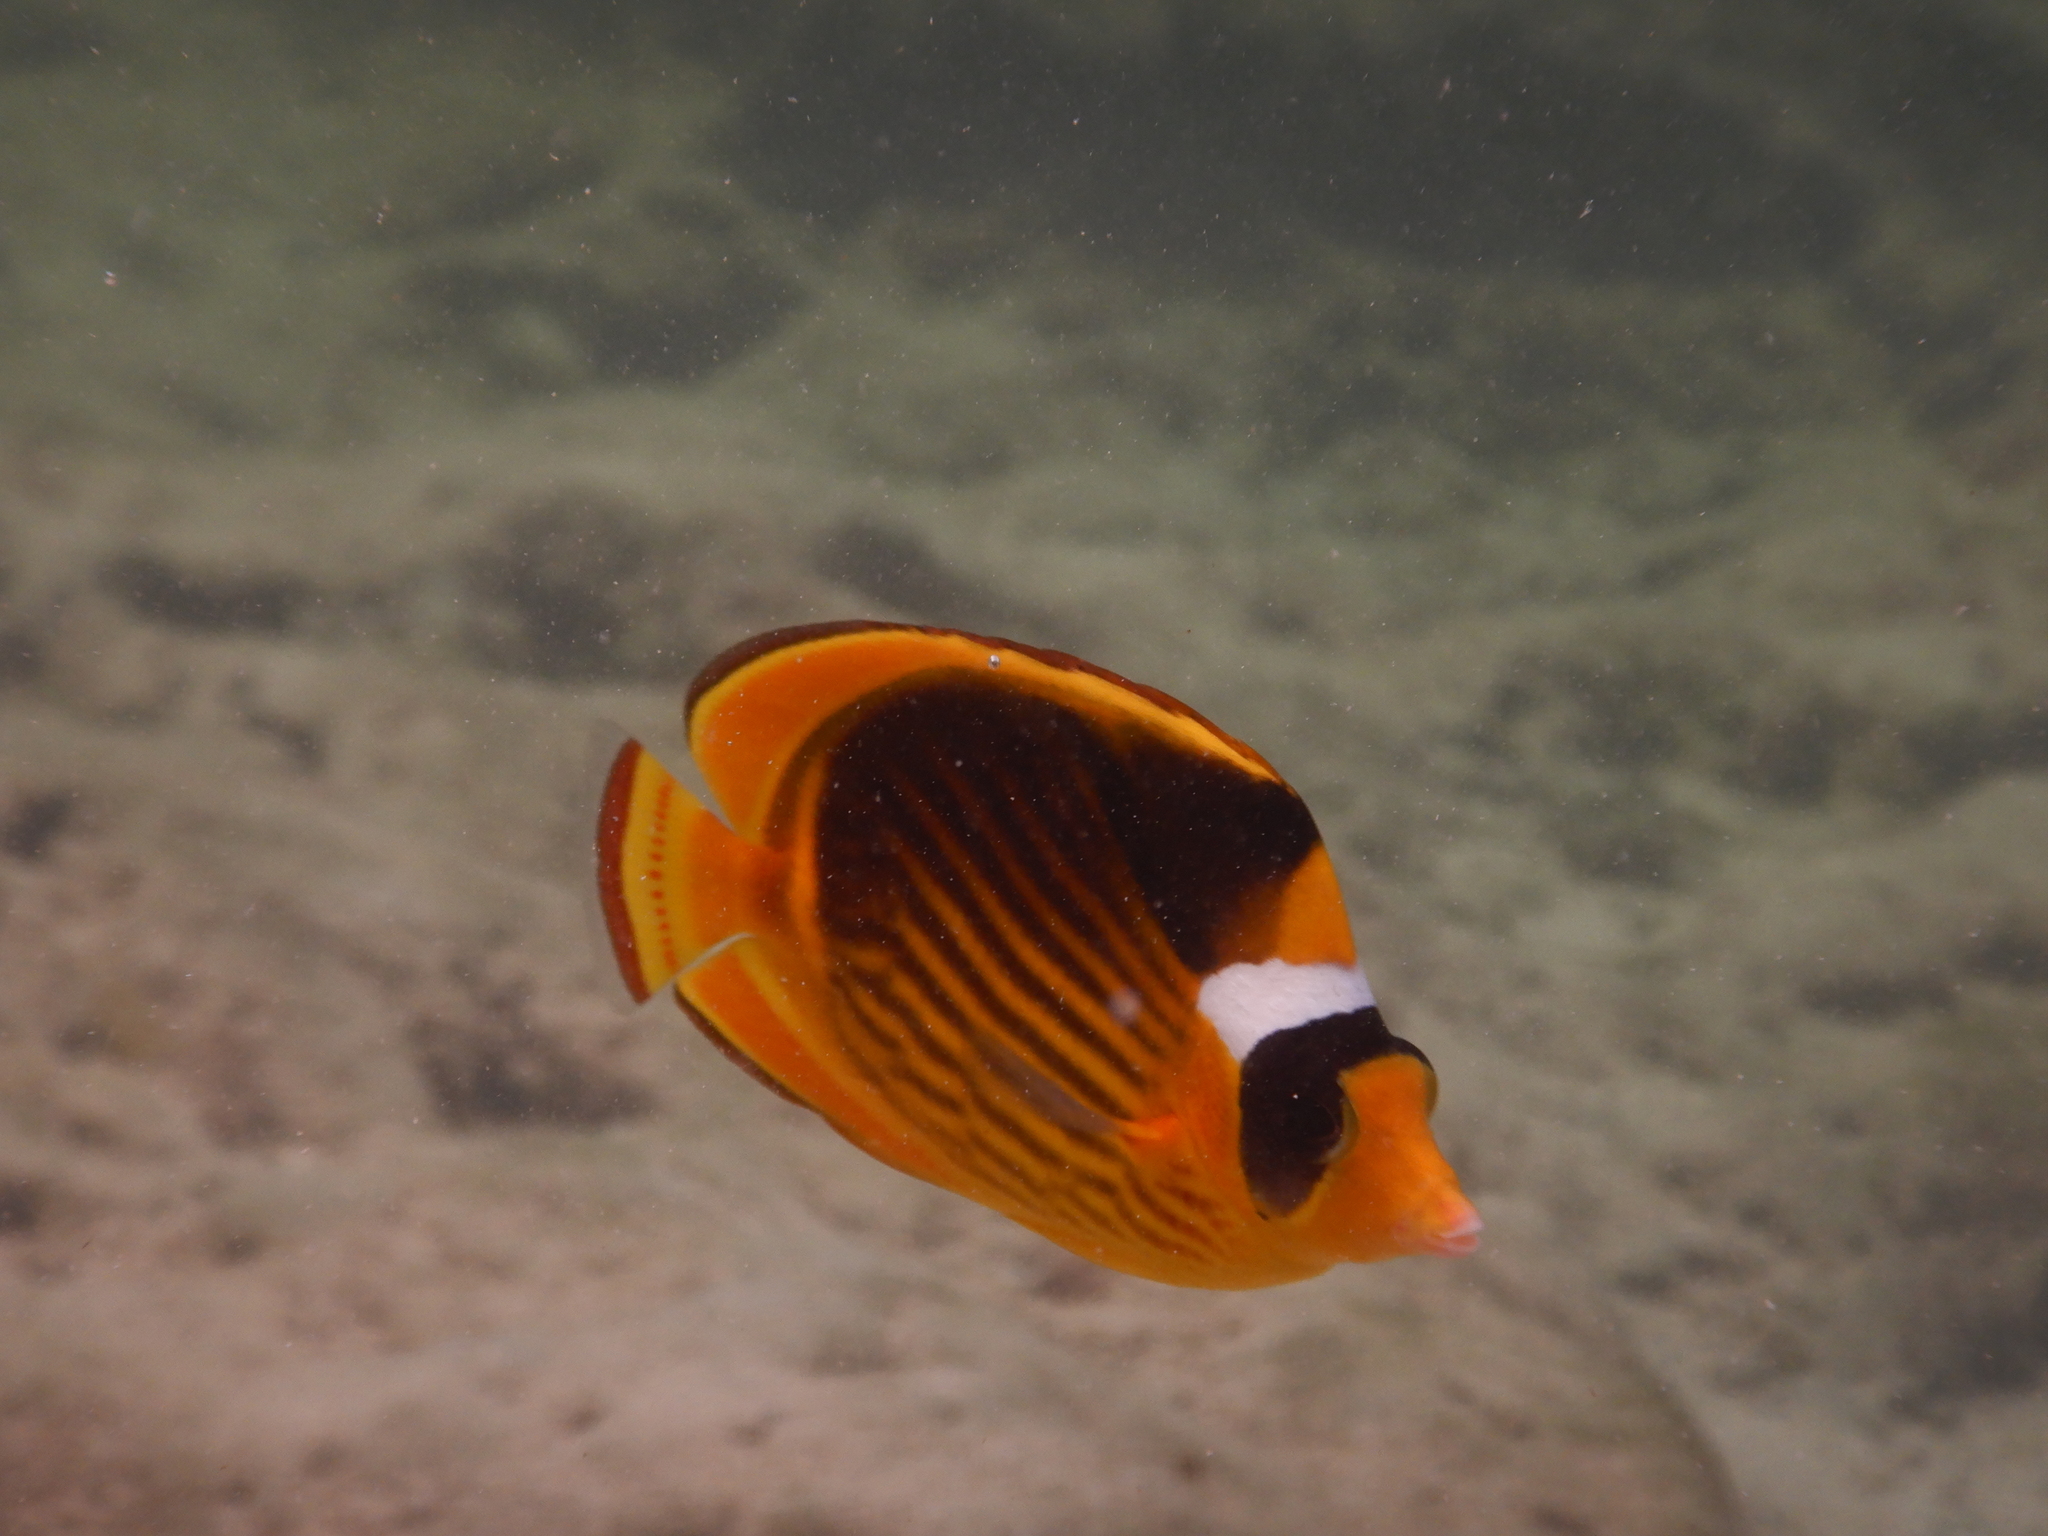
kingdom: Animalia
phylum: Chordata
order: Perciformes
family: Chaetodontidae
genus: Chaetodon
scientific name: Chaetodon fasciatus
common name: Diagonal butterflyfish
